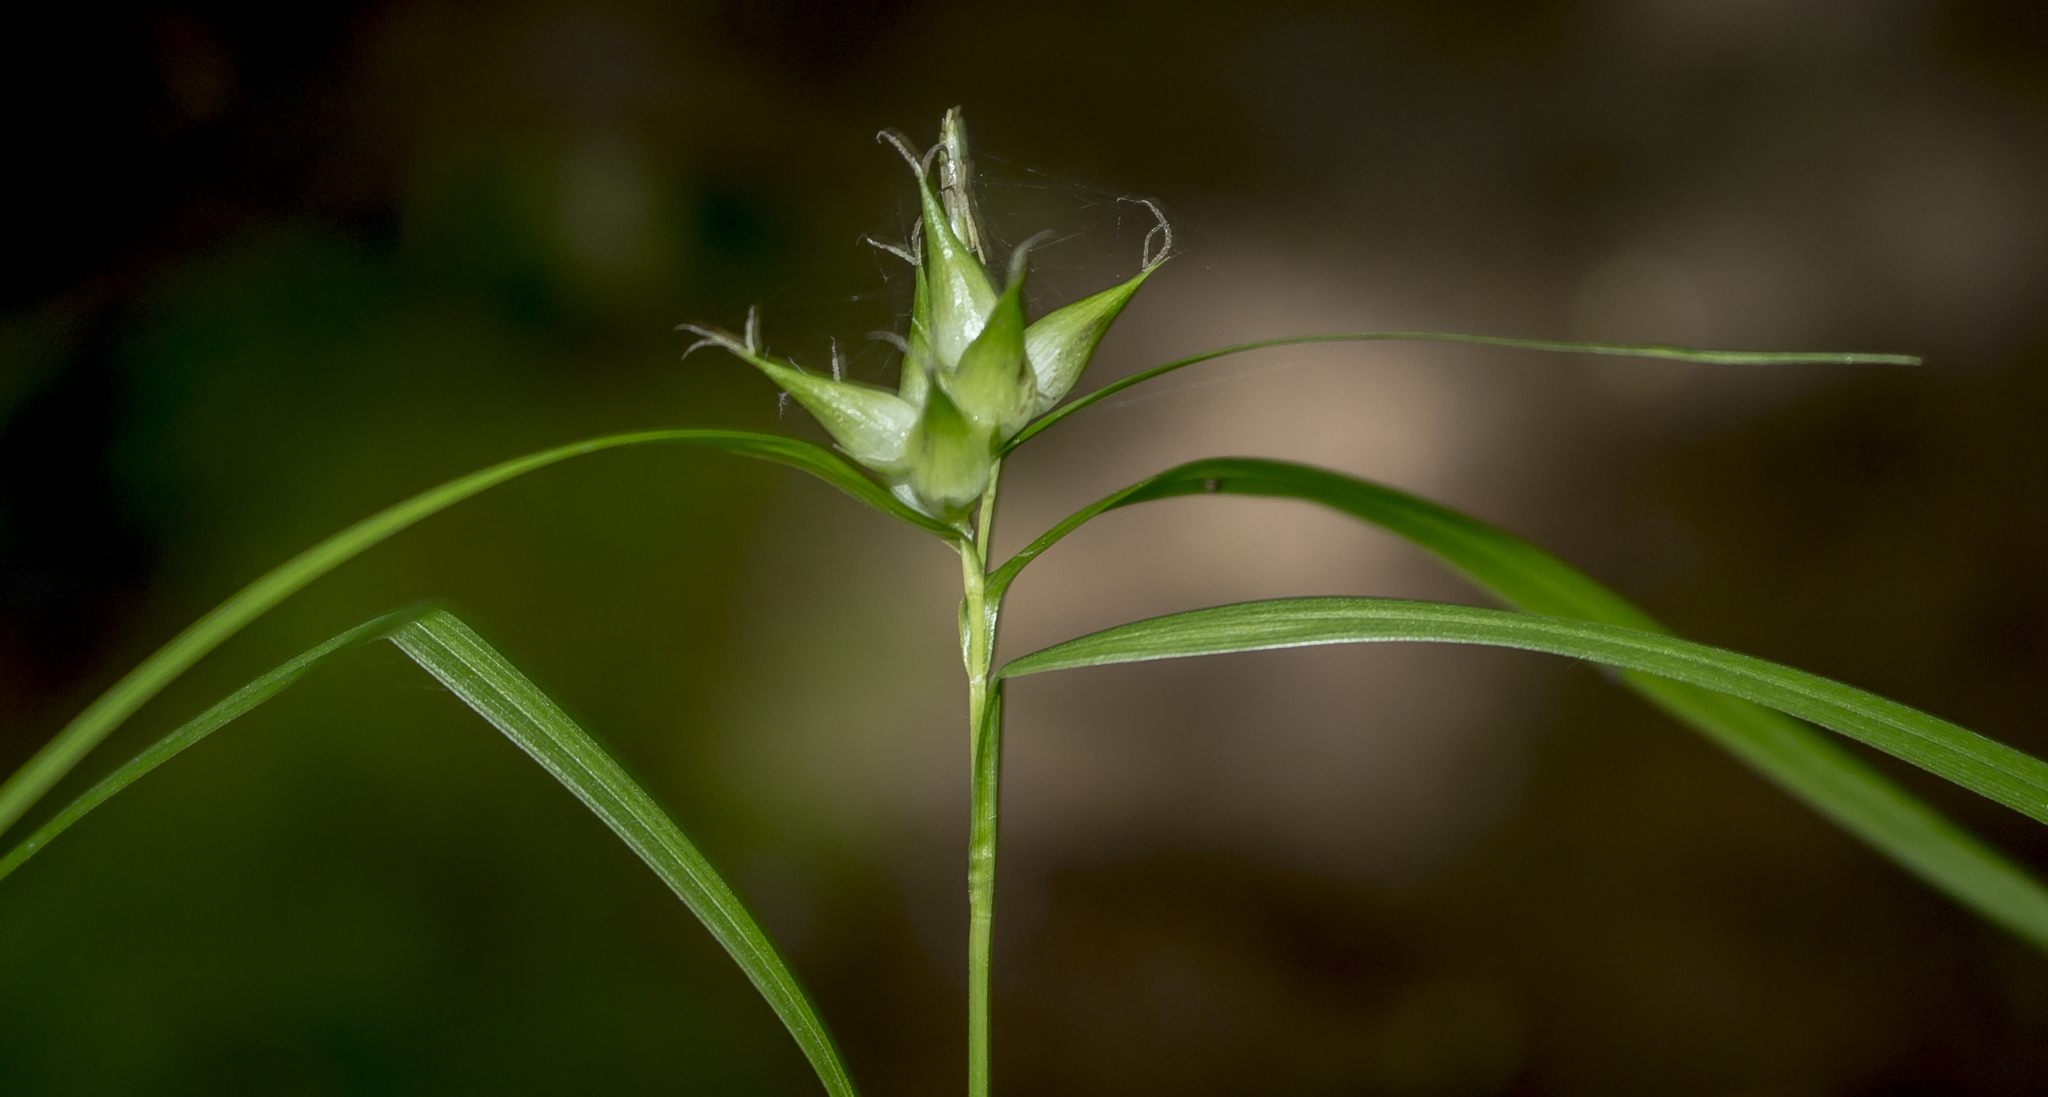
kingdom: Plantae
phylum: Tracheophyta
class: Liliopsida
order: Poales
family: Cyperaceae
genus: Carex
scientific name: Carex intumescens
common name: Greater bladder sedge
